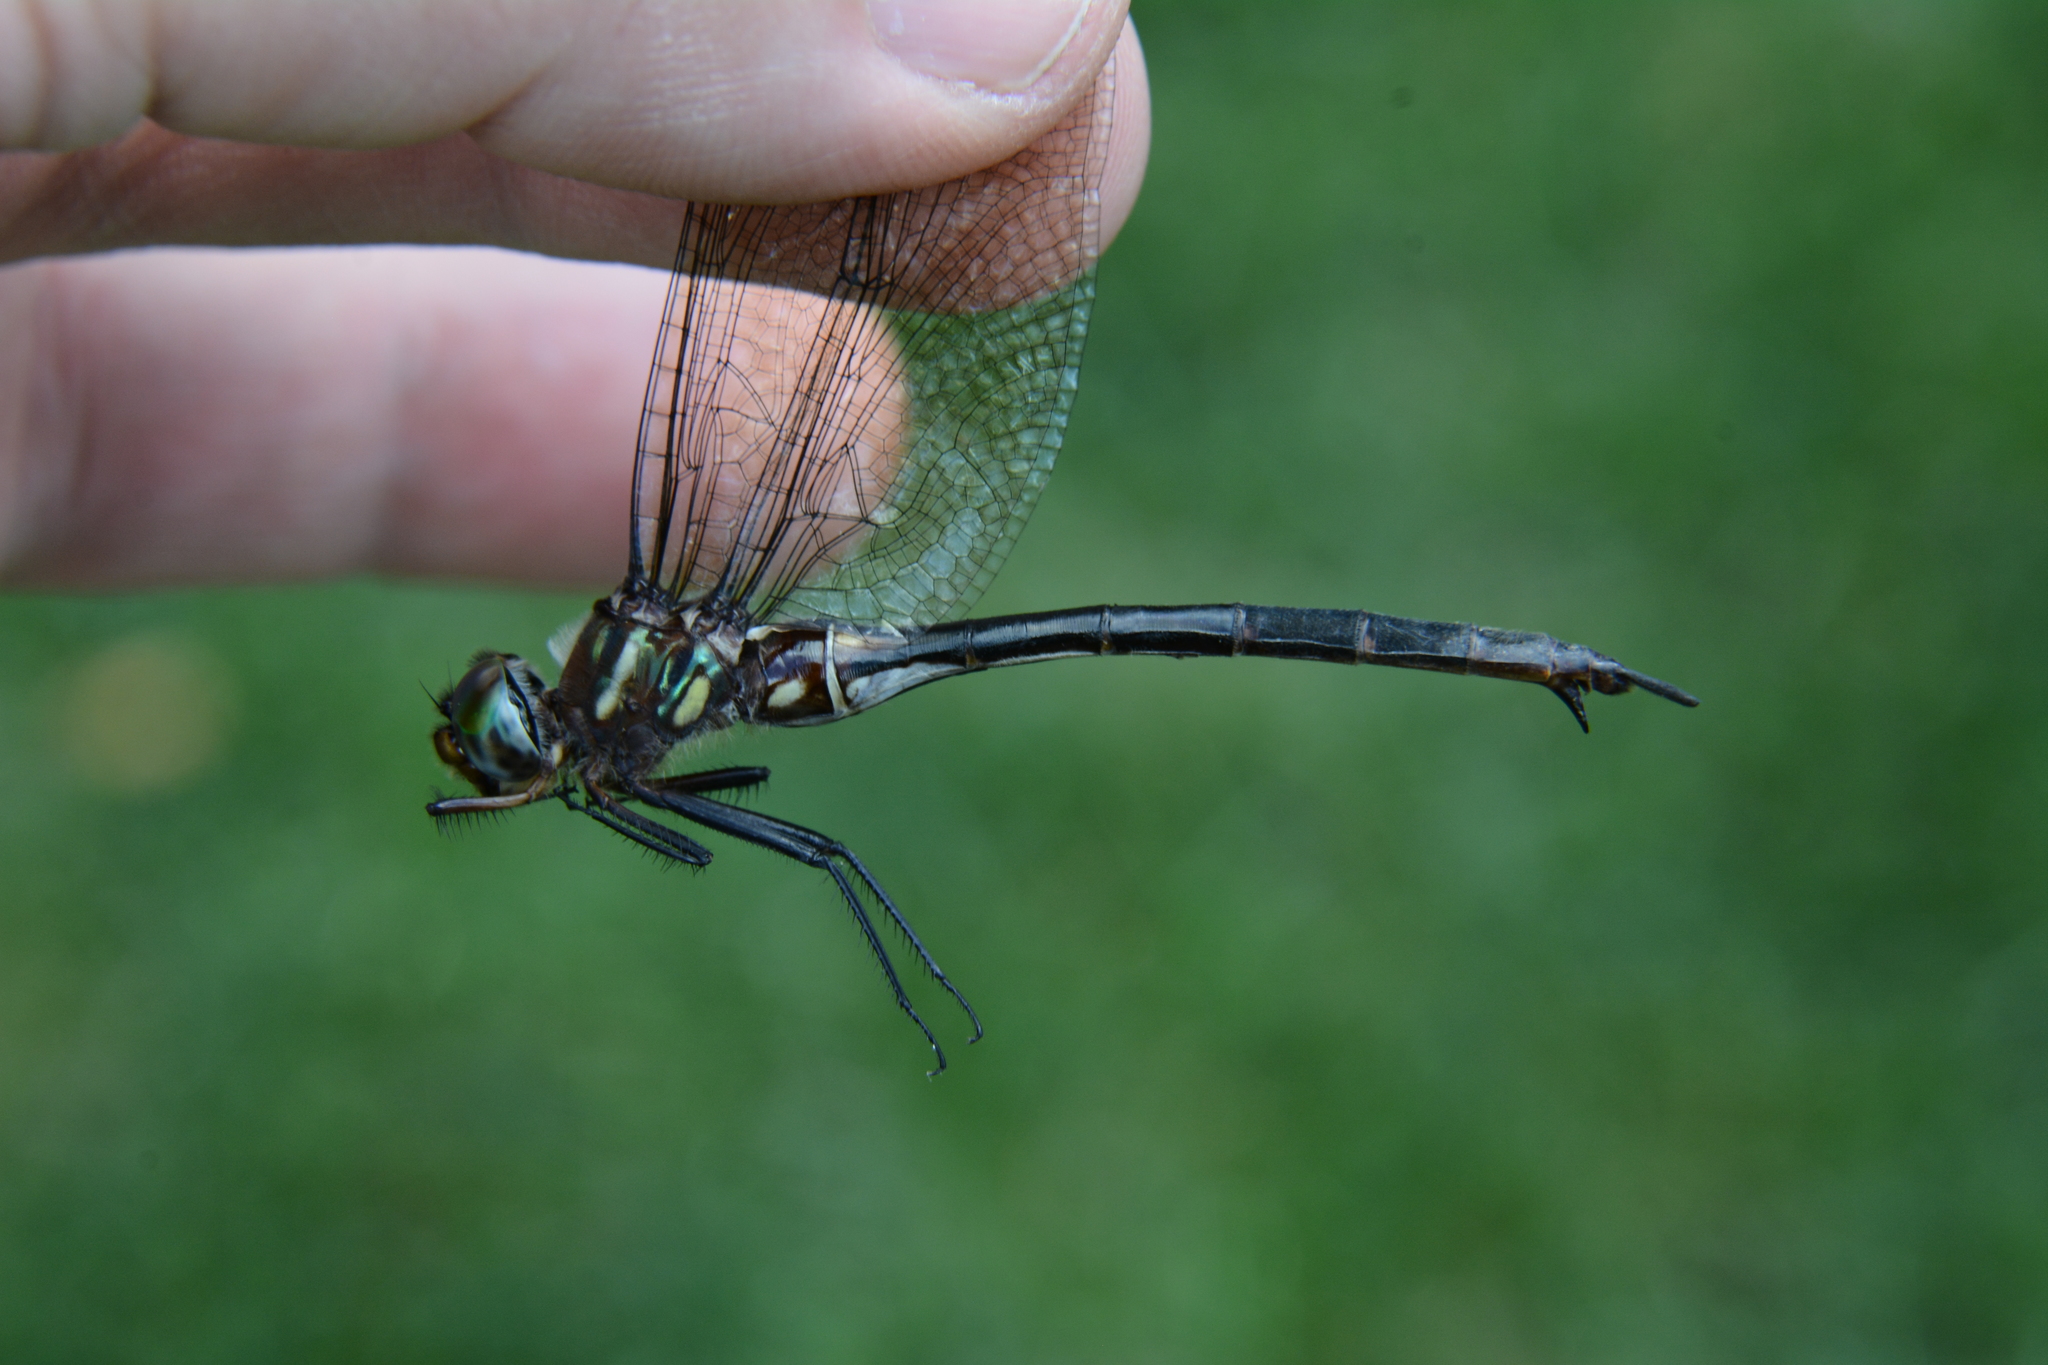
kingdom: Animalia
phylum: Arthropoda
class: Insecta
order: Odonata
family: Corduliidae
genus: Somatochlora
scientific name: Somatochlora tenebrosa
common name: Clamp-tipped emerald
